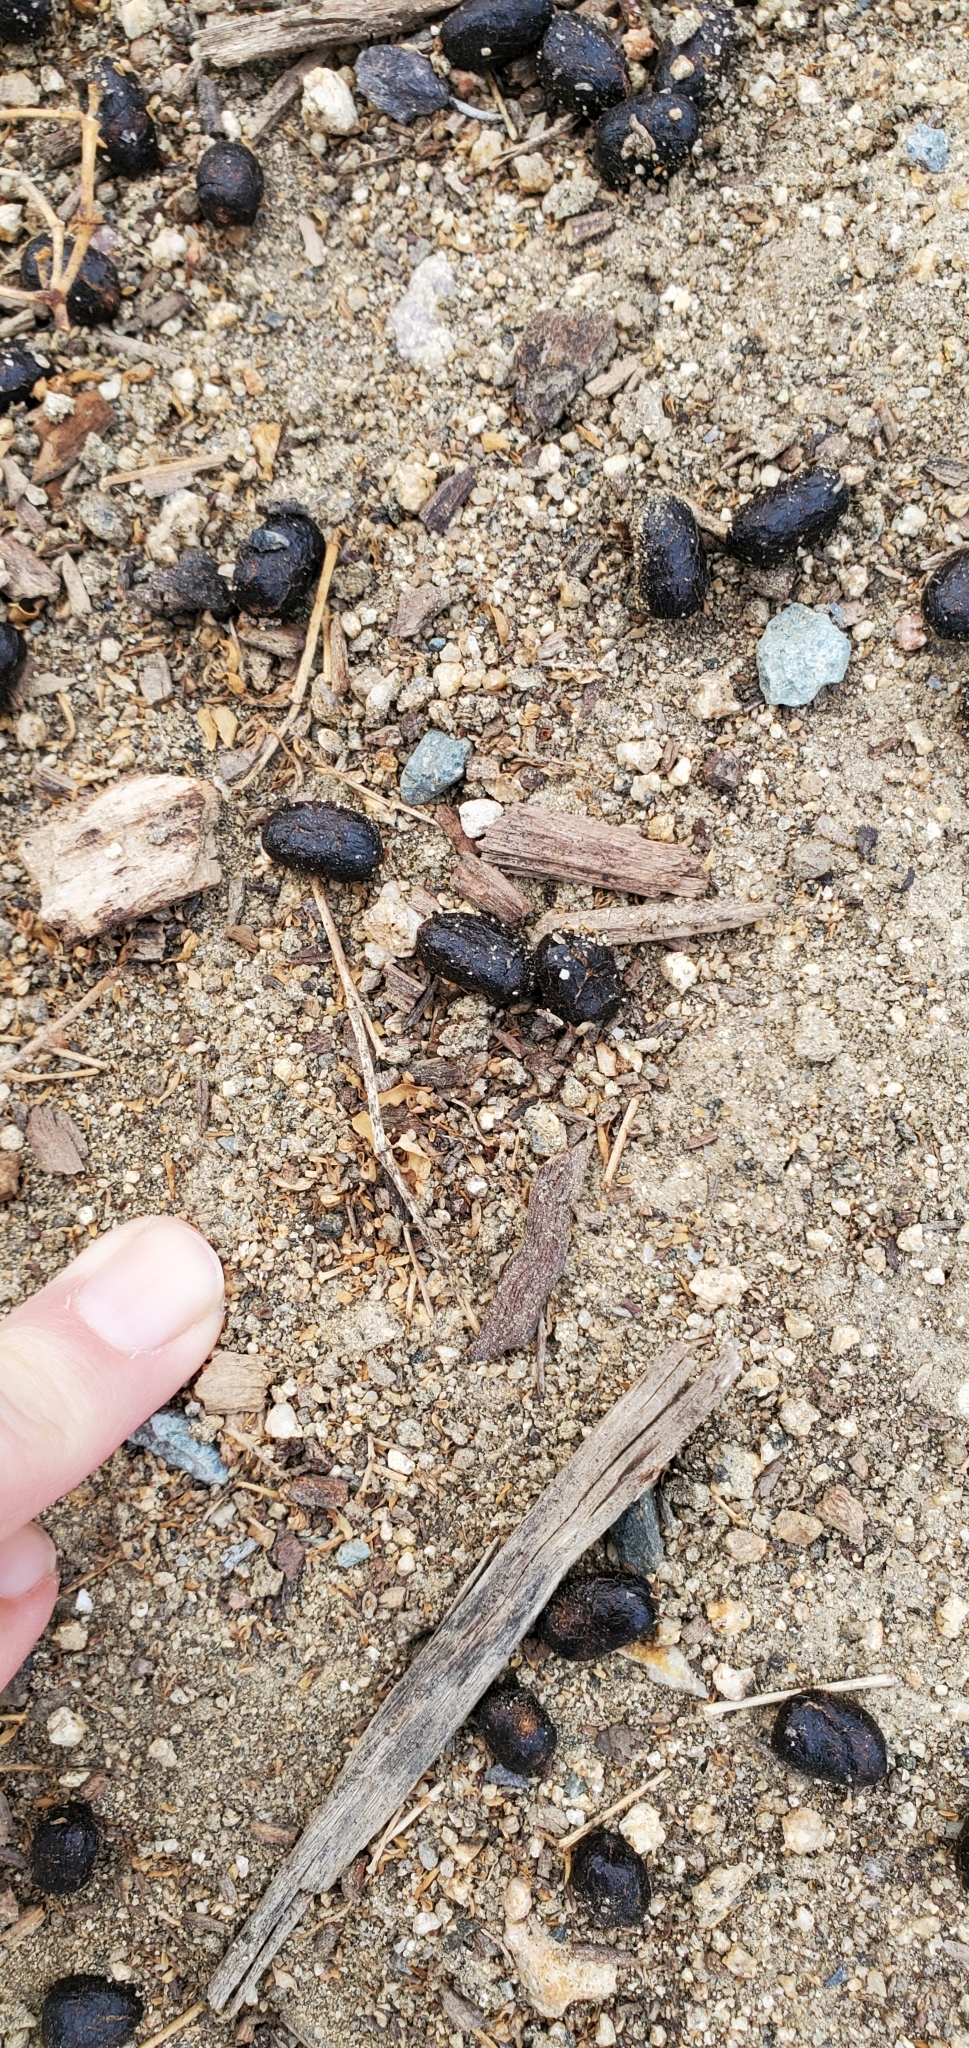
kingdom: Animalia
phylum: Chordata
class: Mammalia
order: Artiodactyla
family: Cervidae
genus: Odocoileus
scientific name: Odocoileus hemionus
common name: Mule deer
